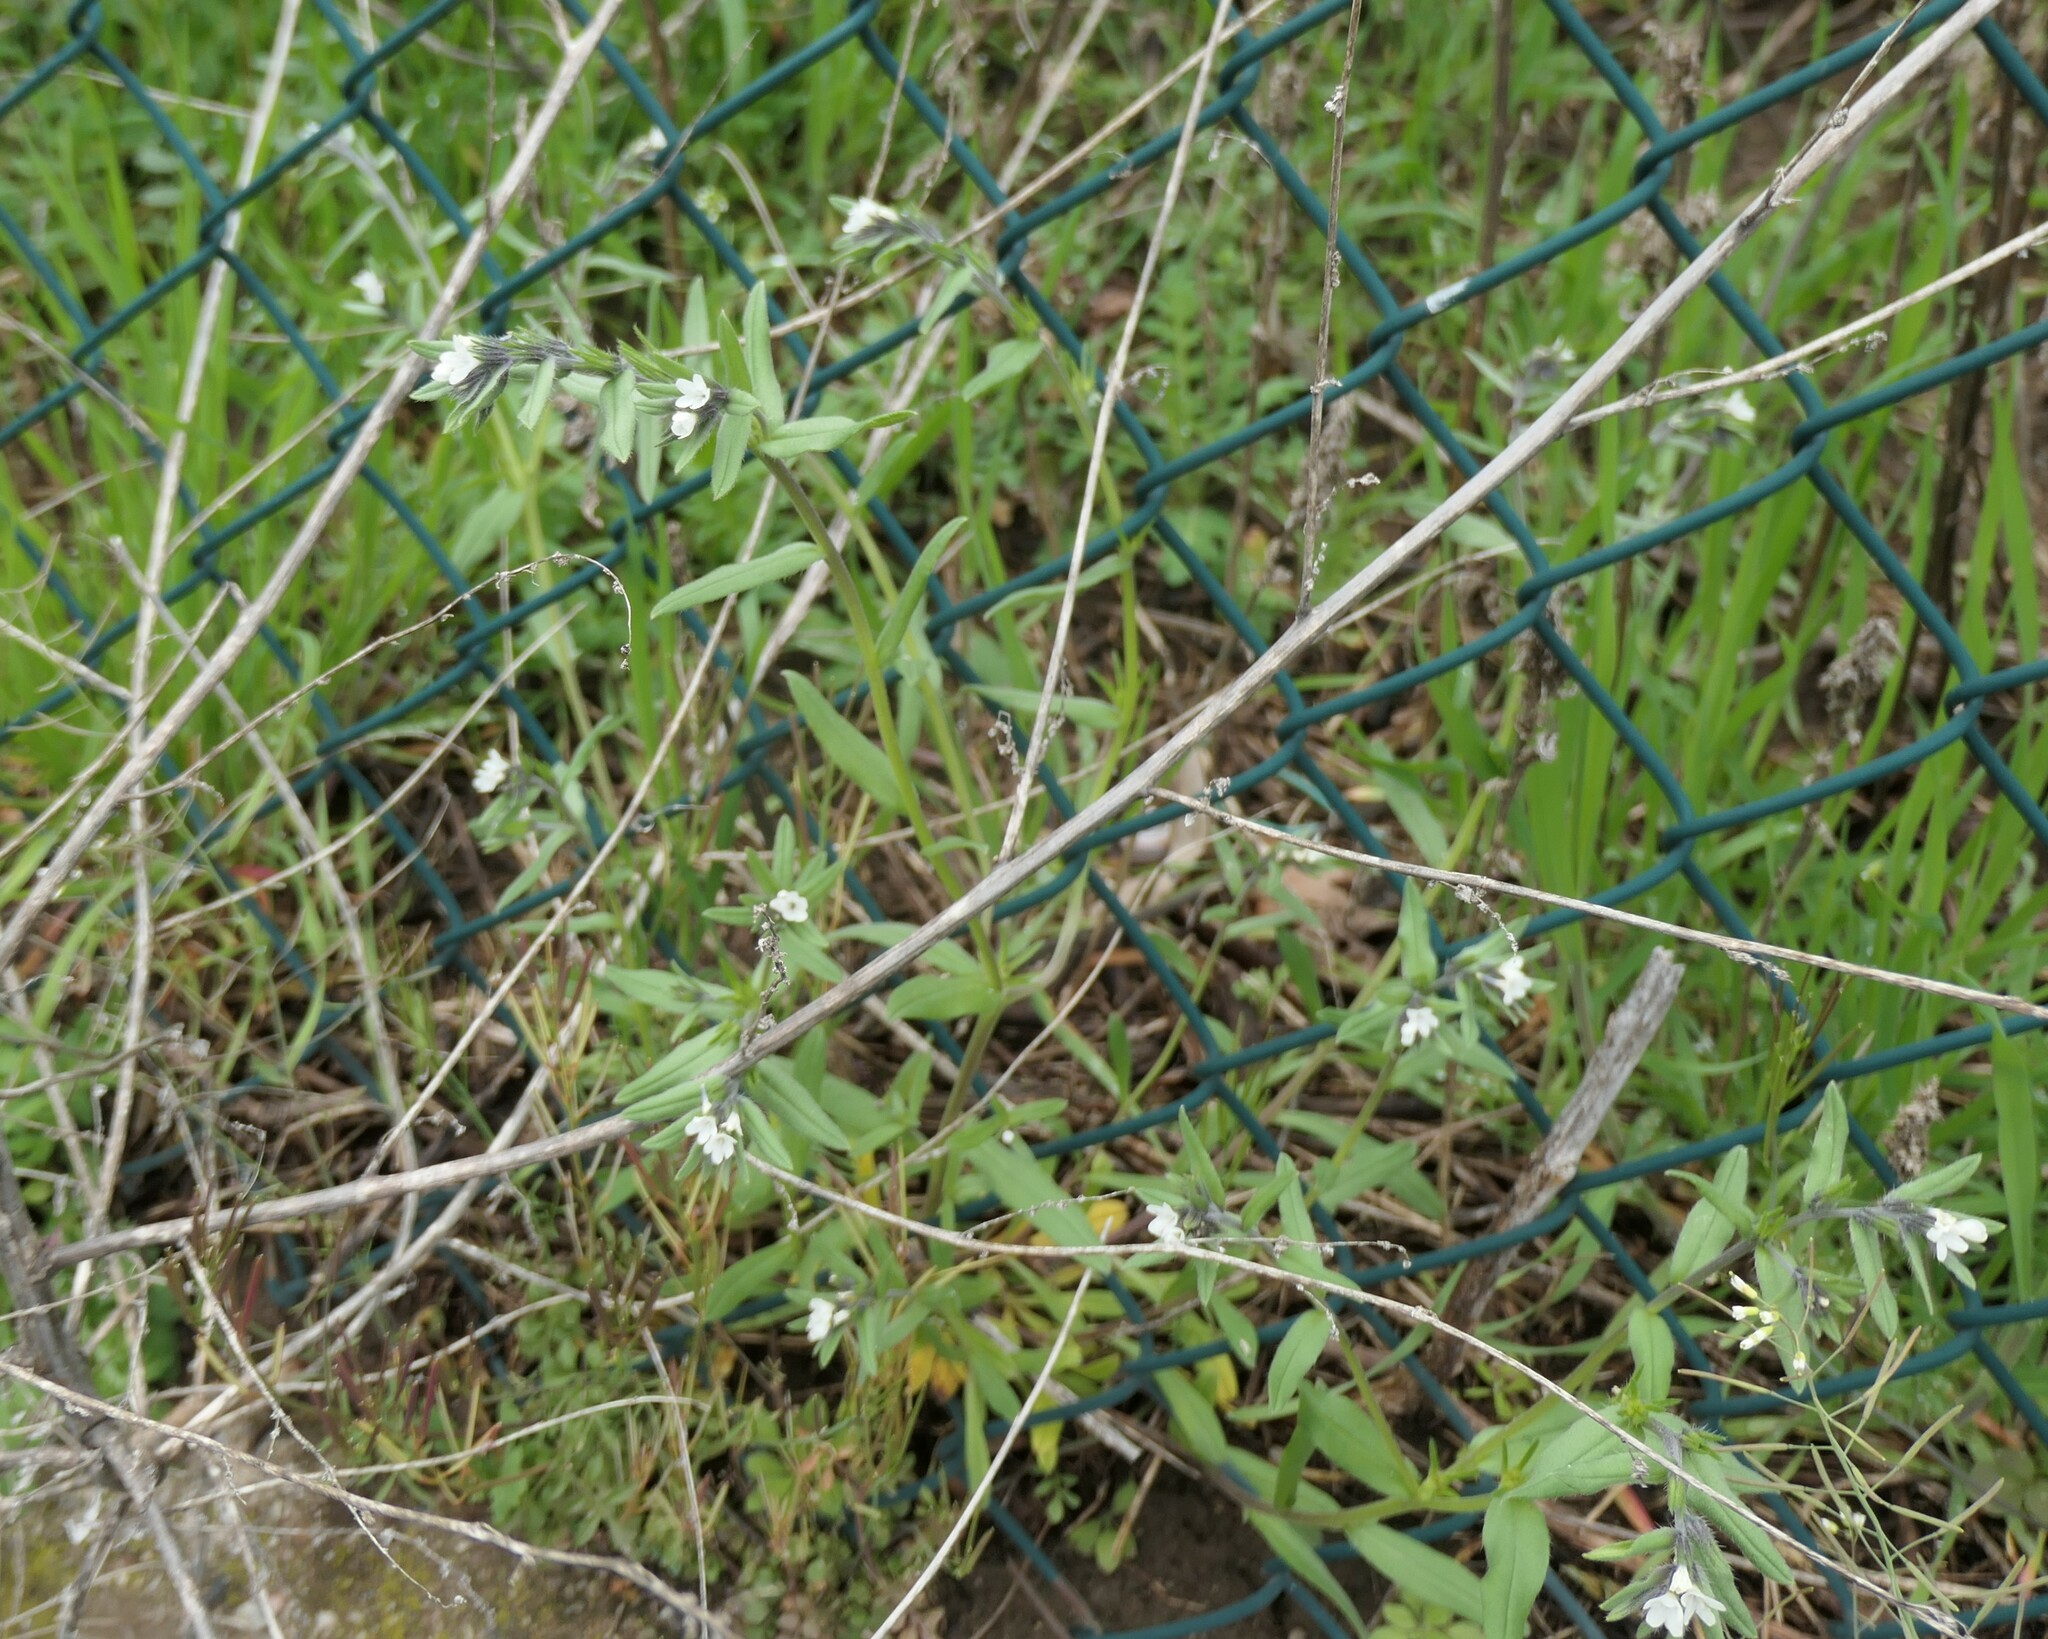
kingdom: Plantae
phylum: Tracheophyta
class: Magnoliopsida
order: Boraginales
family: Boraginaceae
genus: Buglossoides
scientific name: Buglossoides arvensis
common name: Corn gromwell
